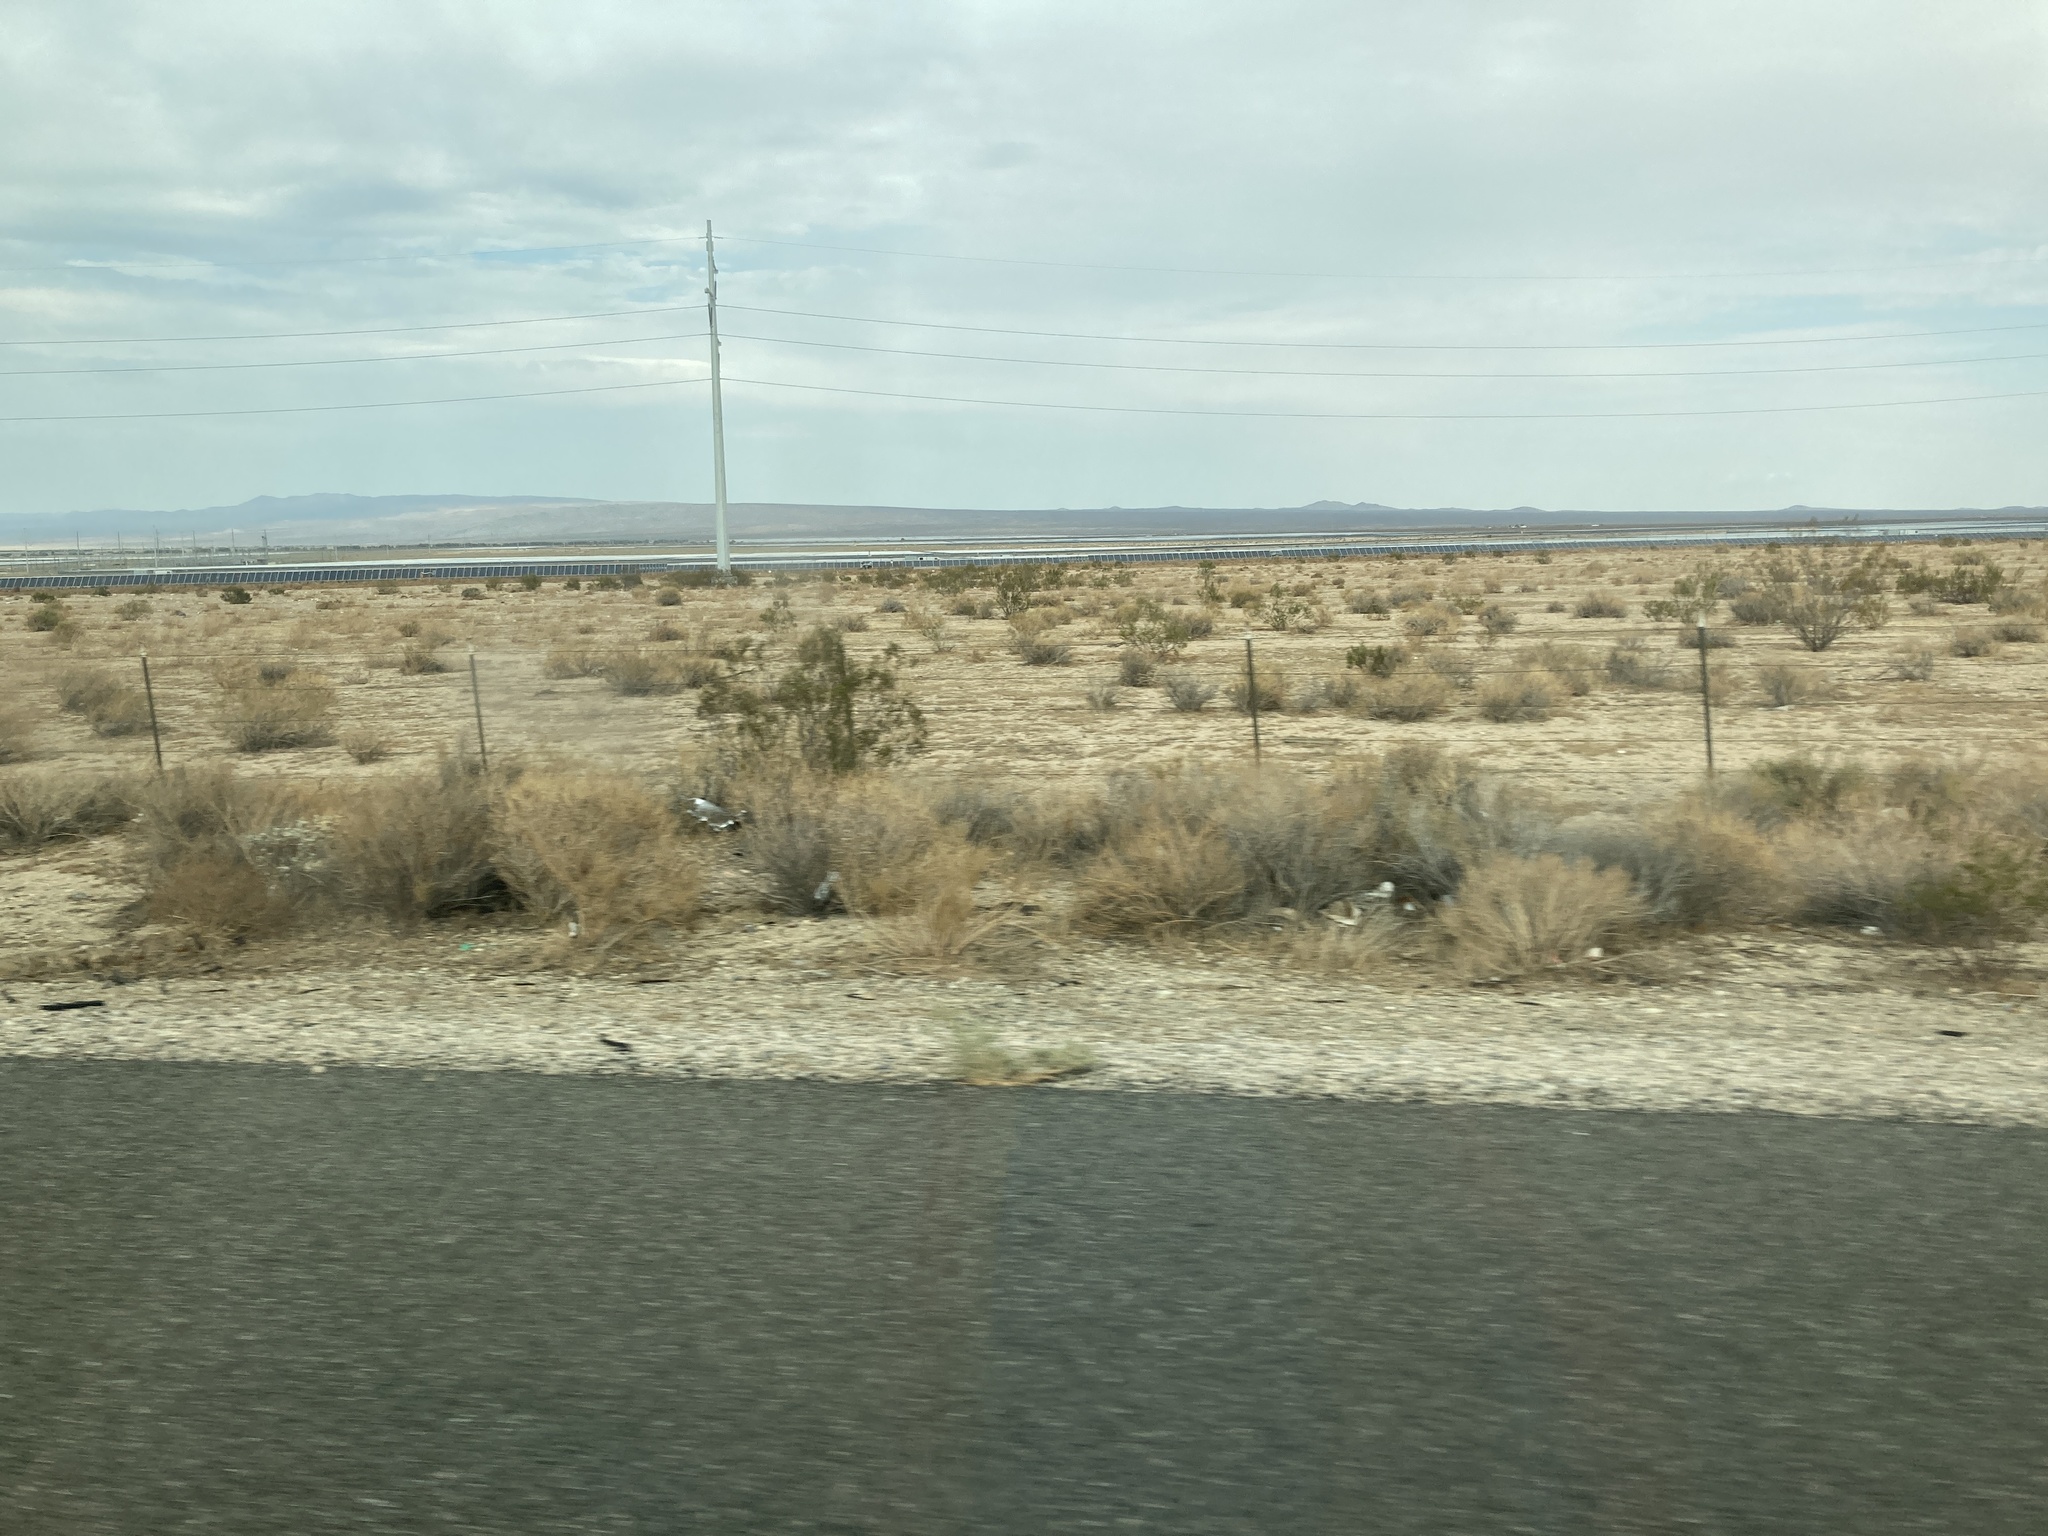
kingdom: Plantae
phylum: Tracheophyta
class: Magnoliopsida
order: Zygophyllales
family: Zygophyllaceae
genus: Larrea
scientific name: Larrea tridentata
